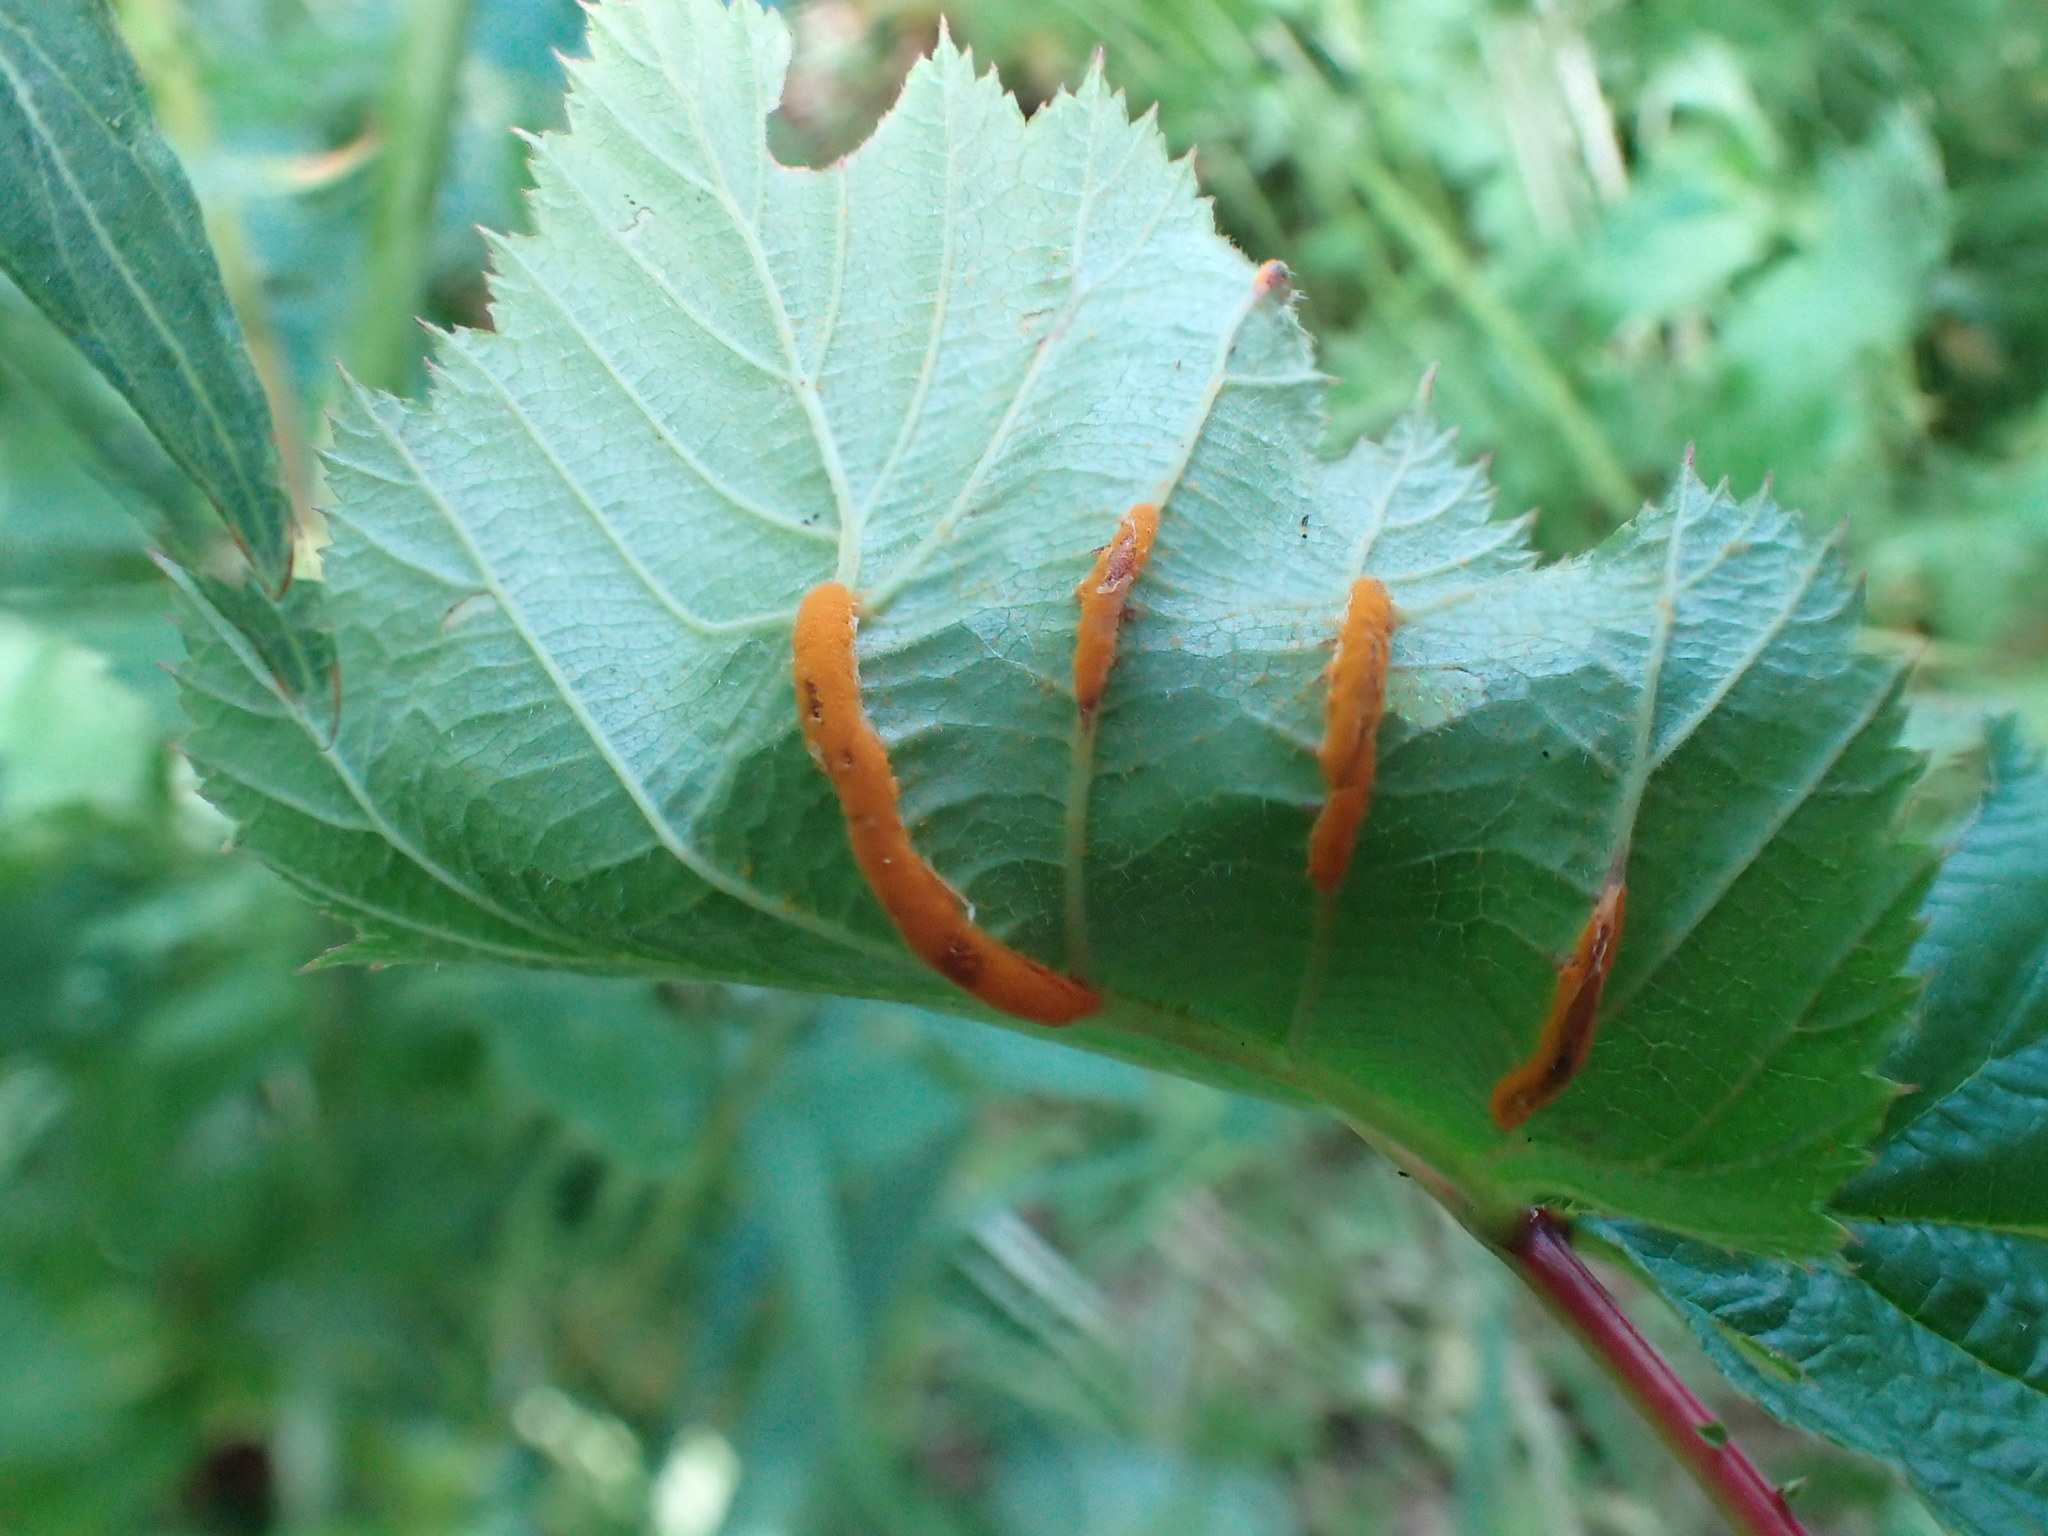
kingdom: Fungi
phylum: Basidiomycota
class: Pucciniomycetes
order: Pucciniales
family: Raveneliaceae
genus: Triphragmium
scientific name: Triphragmium ulmariae
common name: Meadowsweet rust
